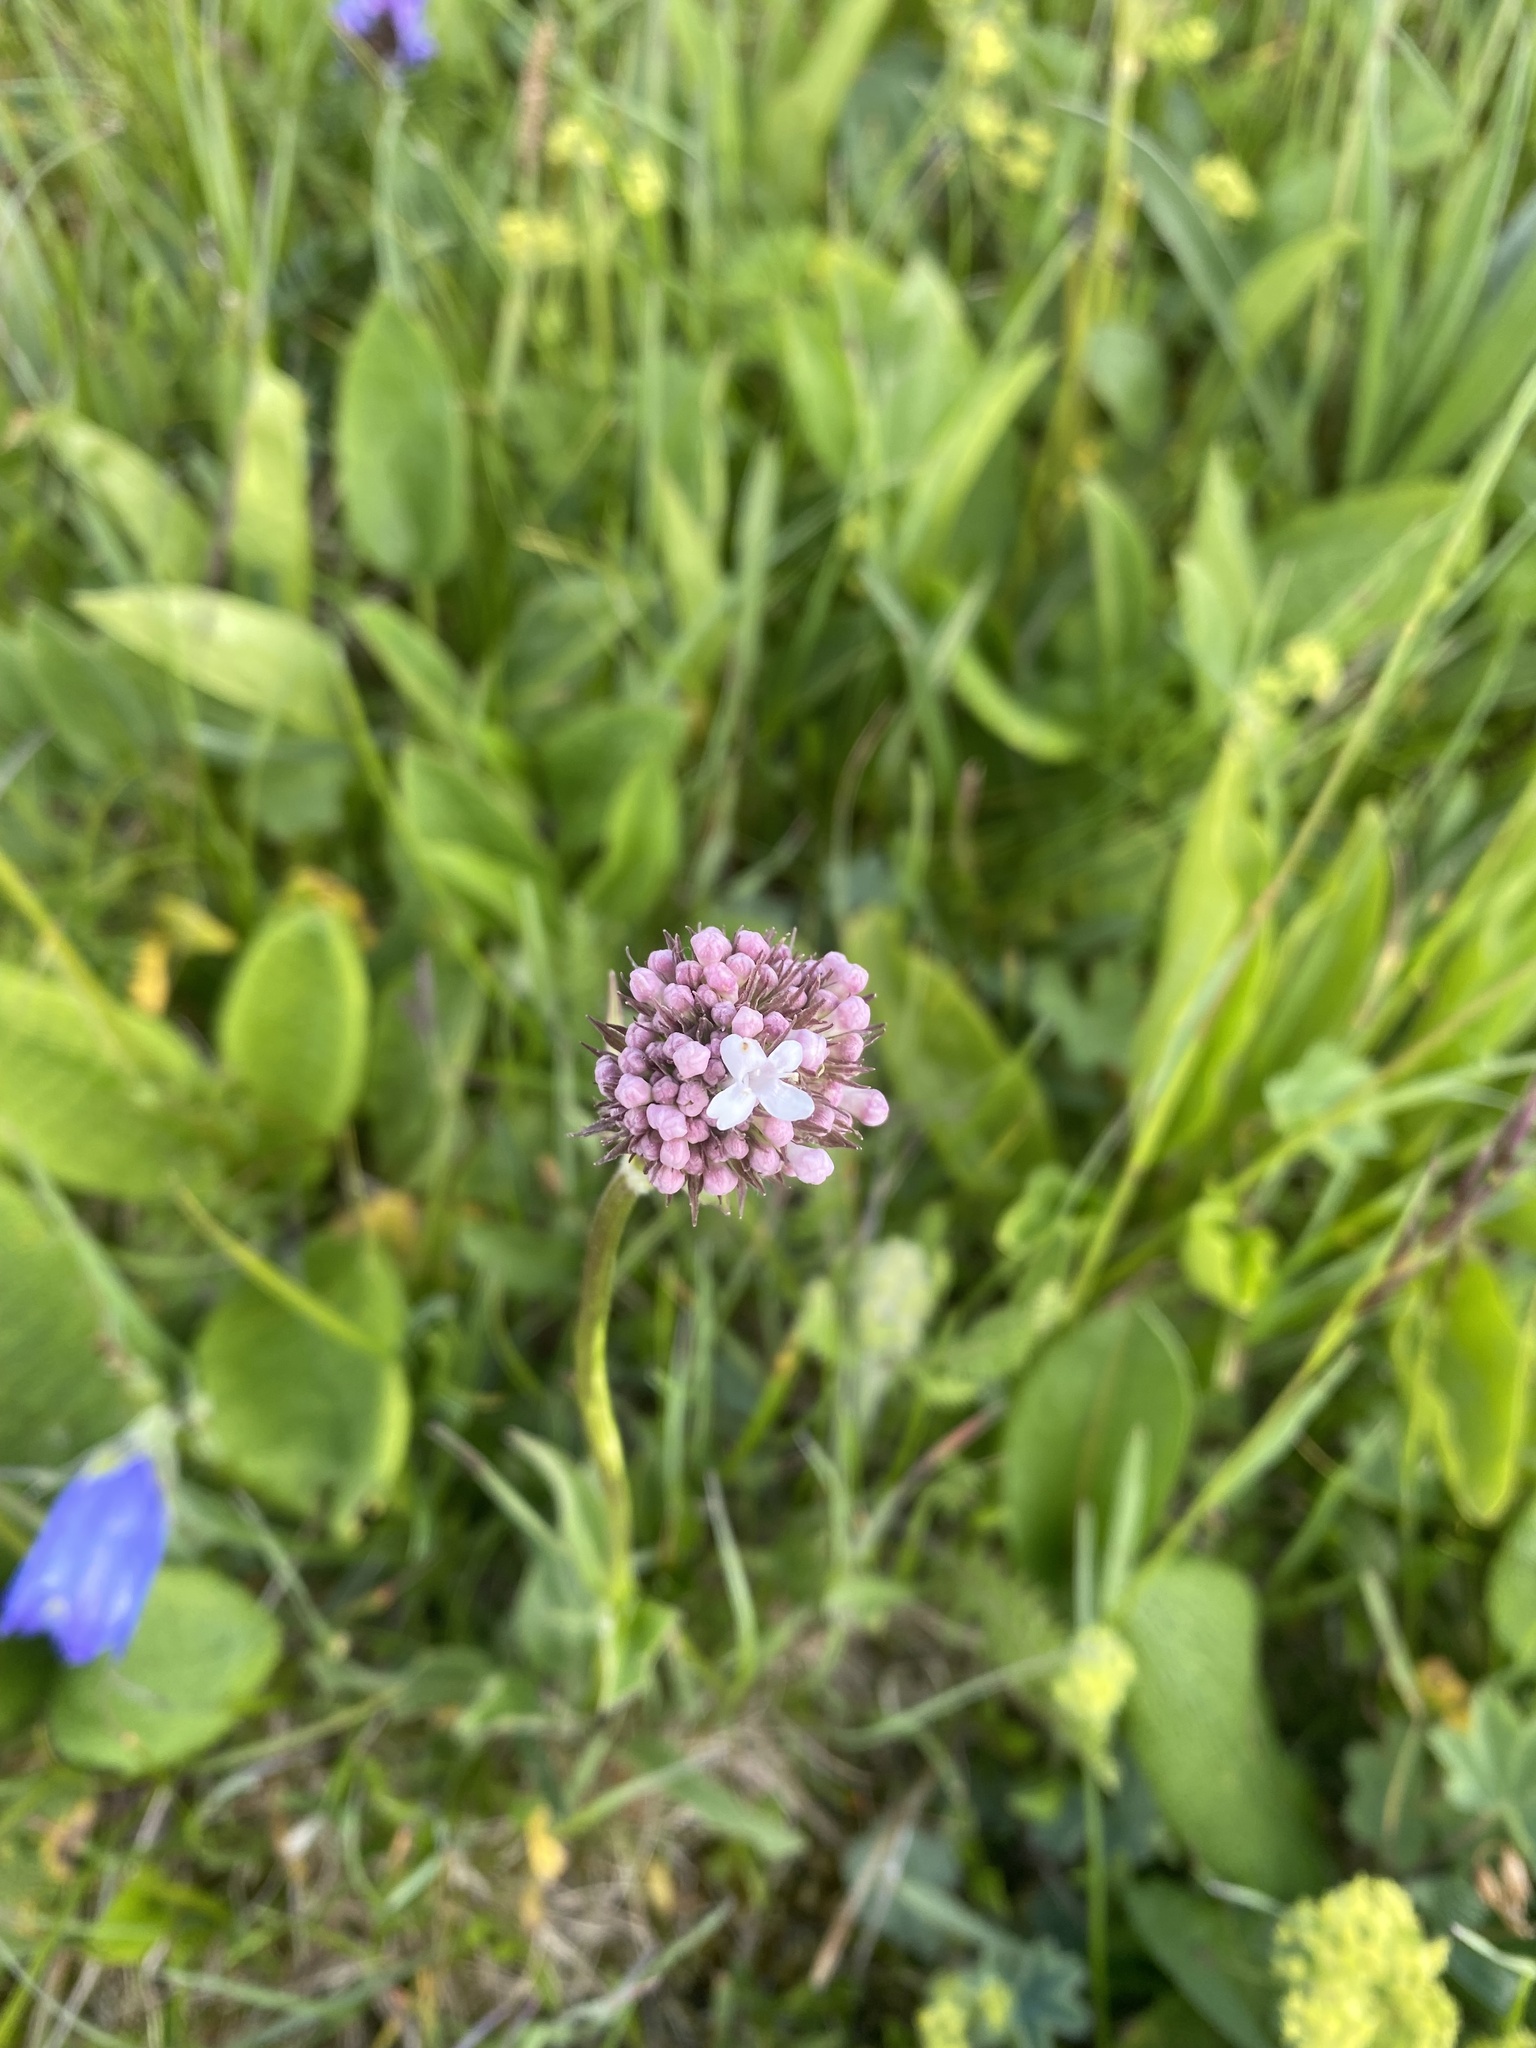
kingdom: Plantae
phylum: Tracheophyta
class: Magnoliopsida
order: Dipsacales
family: Caprifoliaceae
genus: Valeriana
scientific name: Valeriana alpestris
